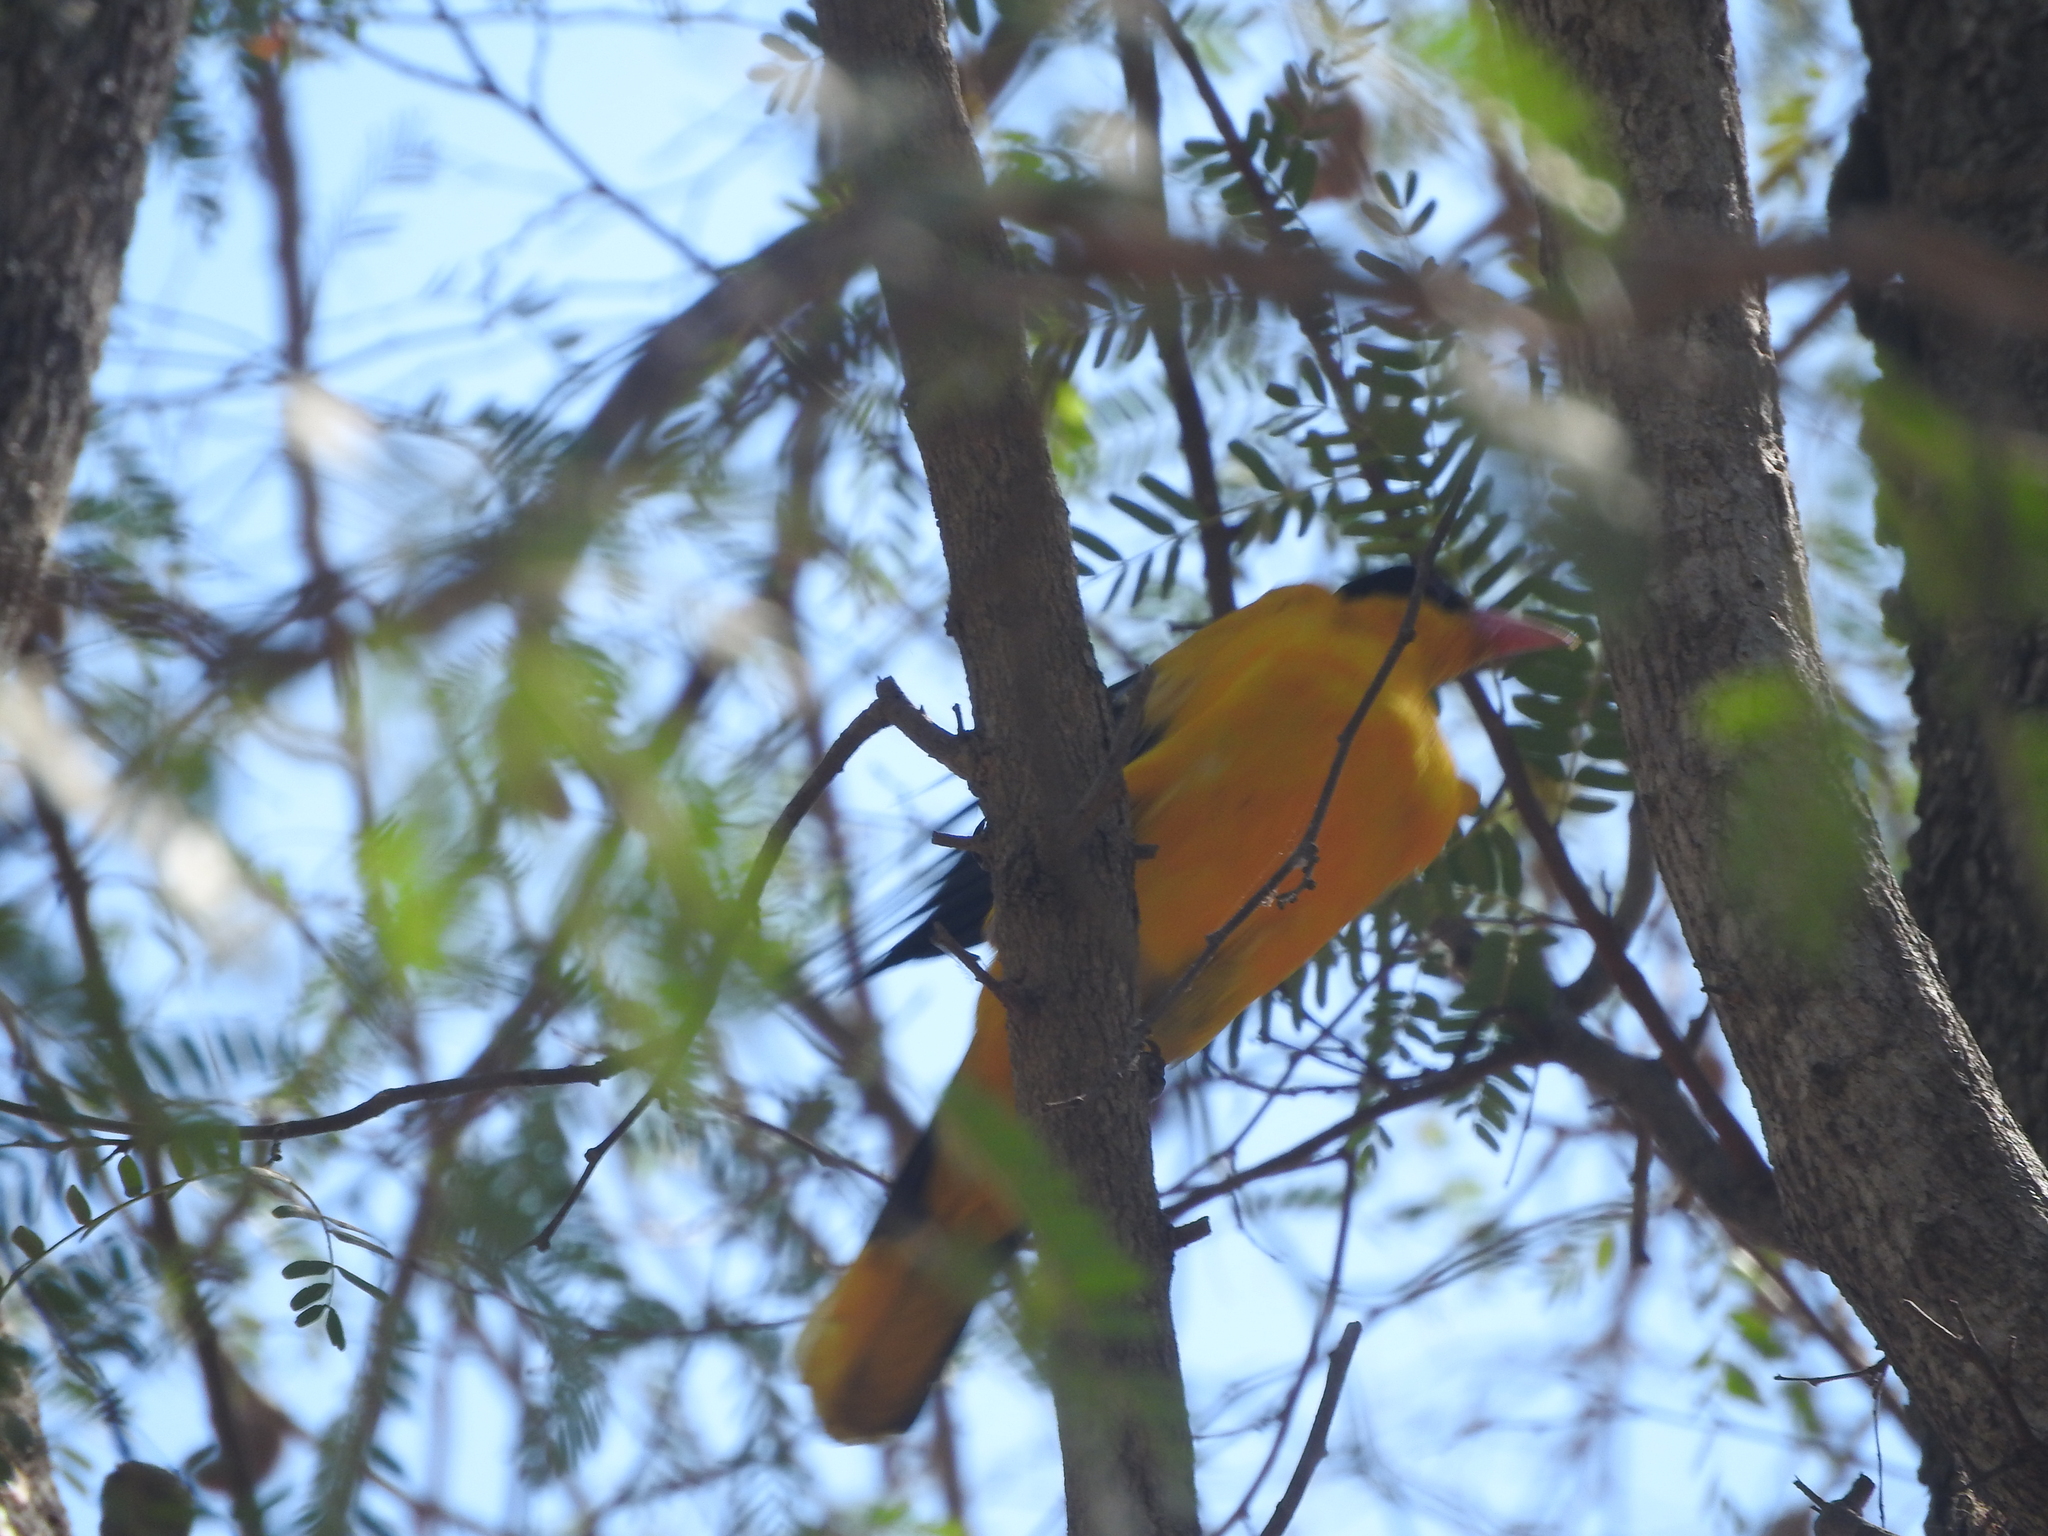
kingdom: Animalia
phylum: Chordata
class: Aves
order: Passeriformes
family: Oriolidae
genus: Oriolus
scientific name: Oriolus chinensis
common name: Black-naped oriole
